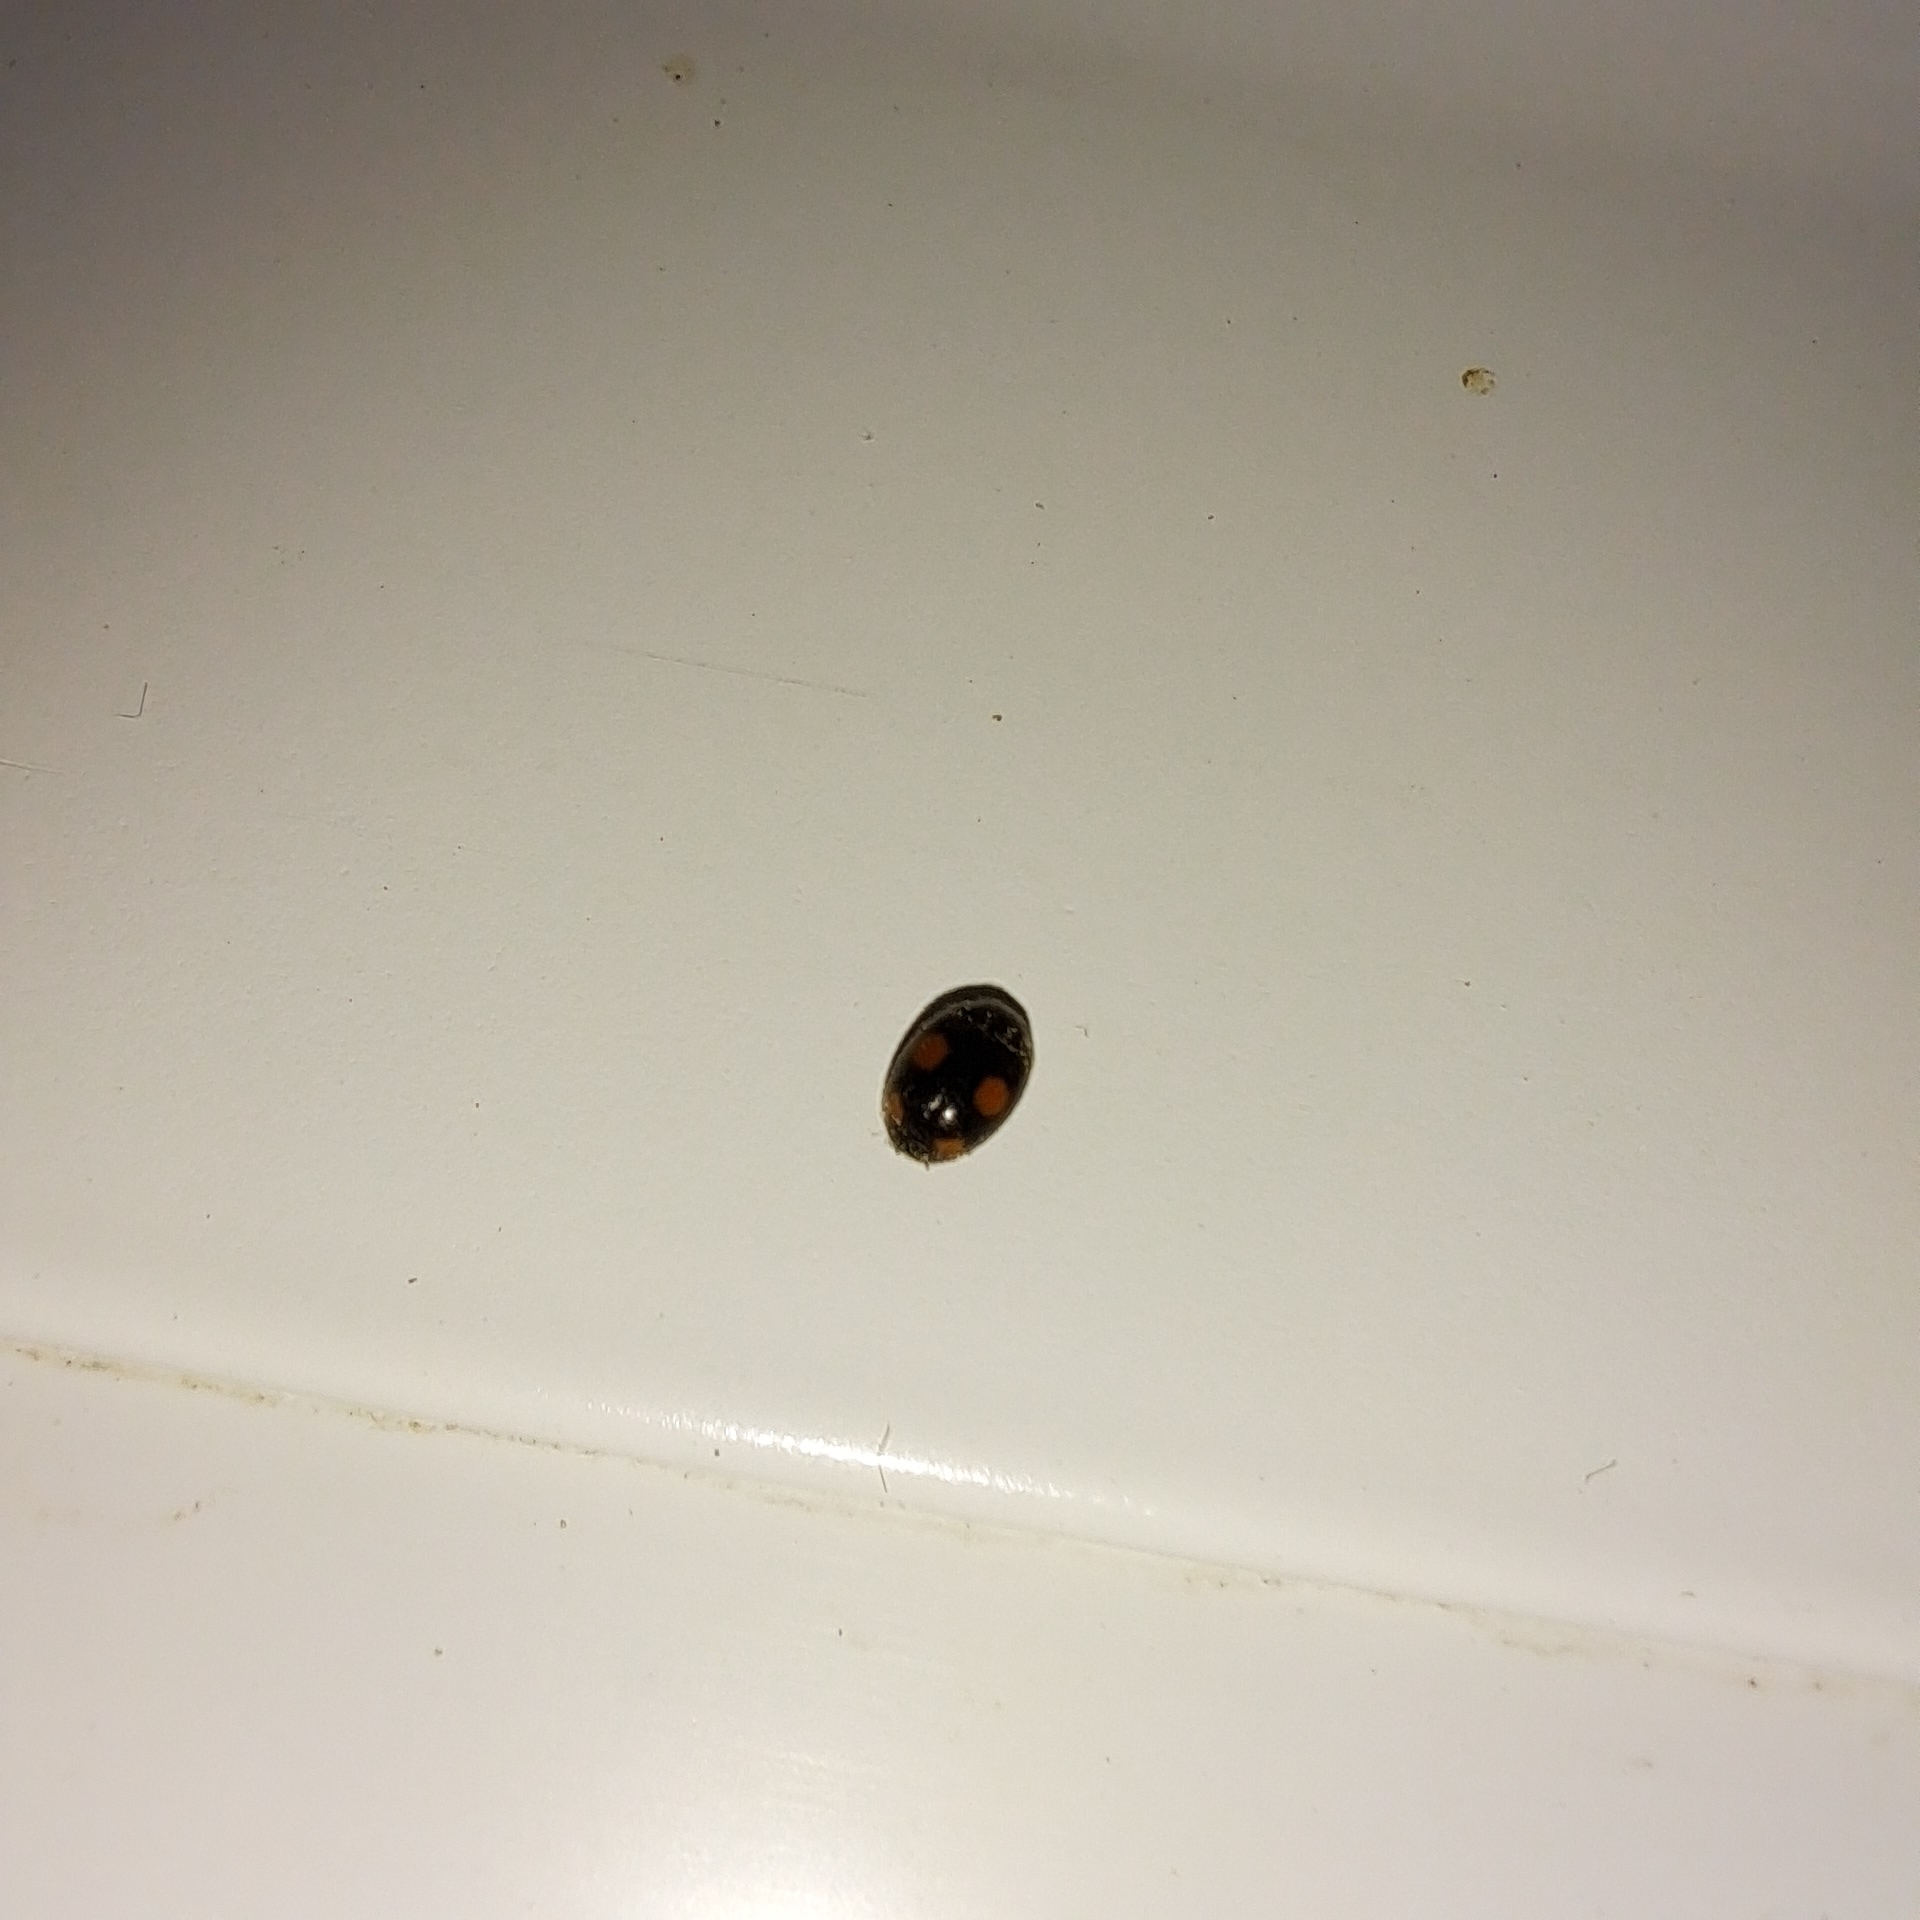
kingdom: Animalia
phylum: Arthropoda
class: Insecta
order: Coleoptera
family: Coccinellidae
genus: Platynaspis
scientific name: Platynaspis luteorubra
